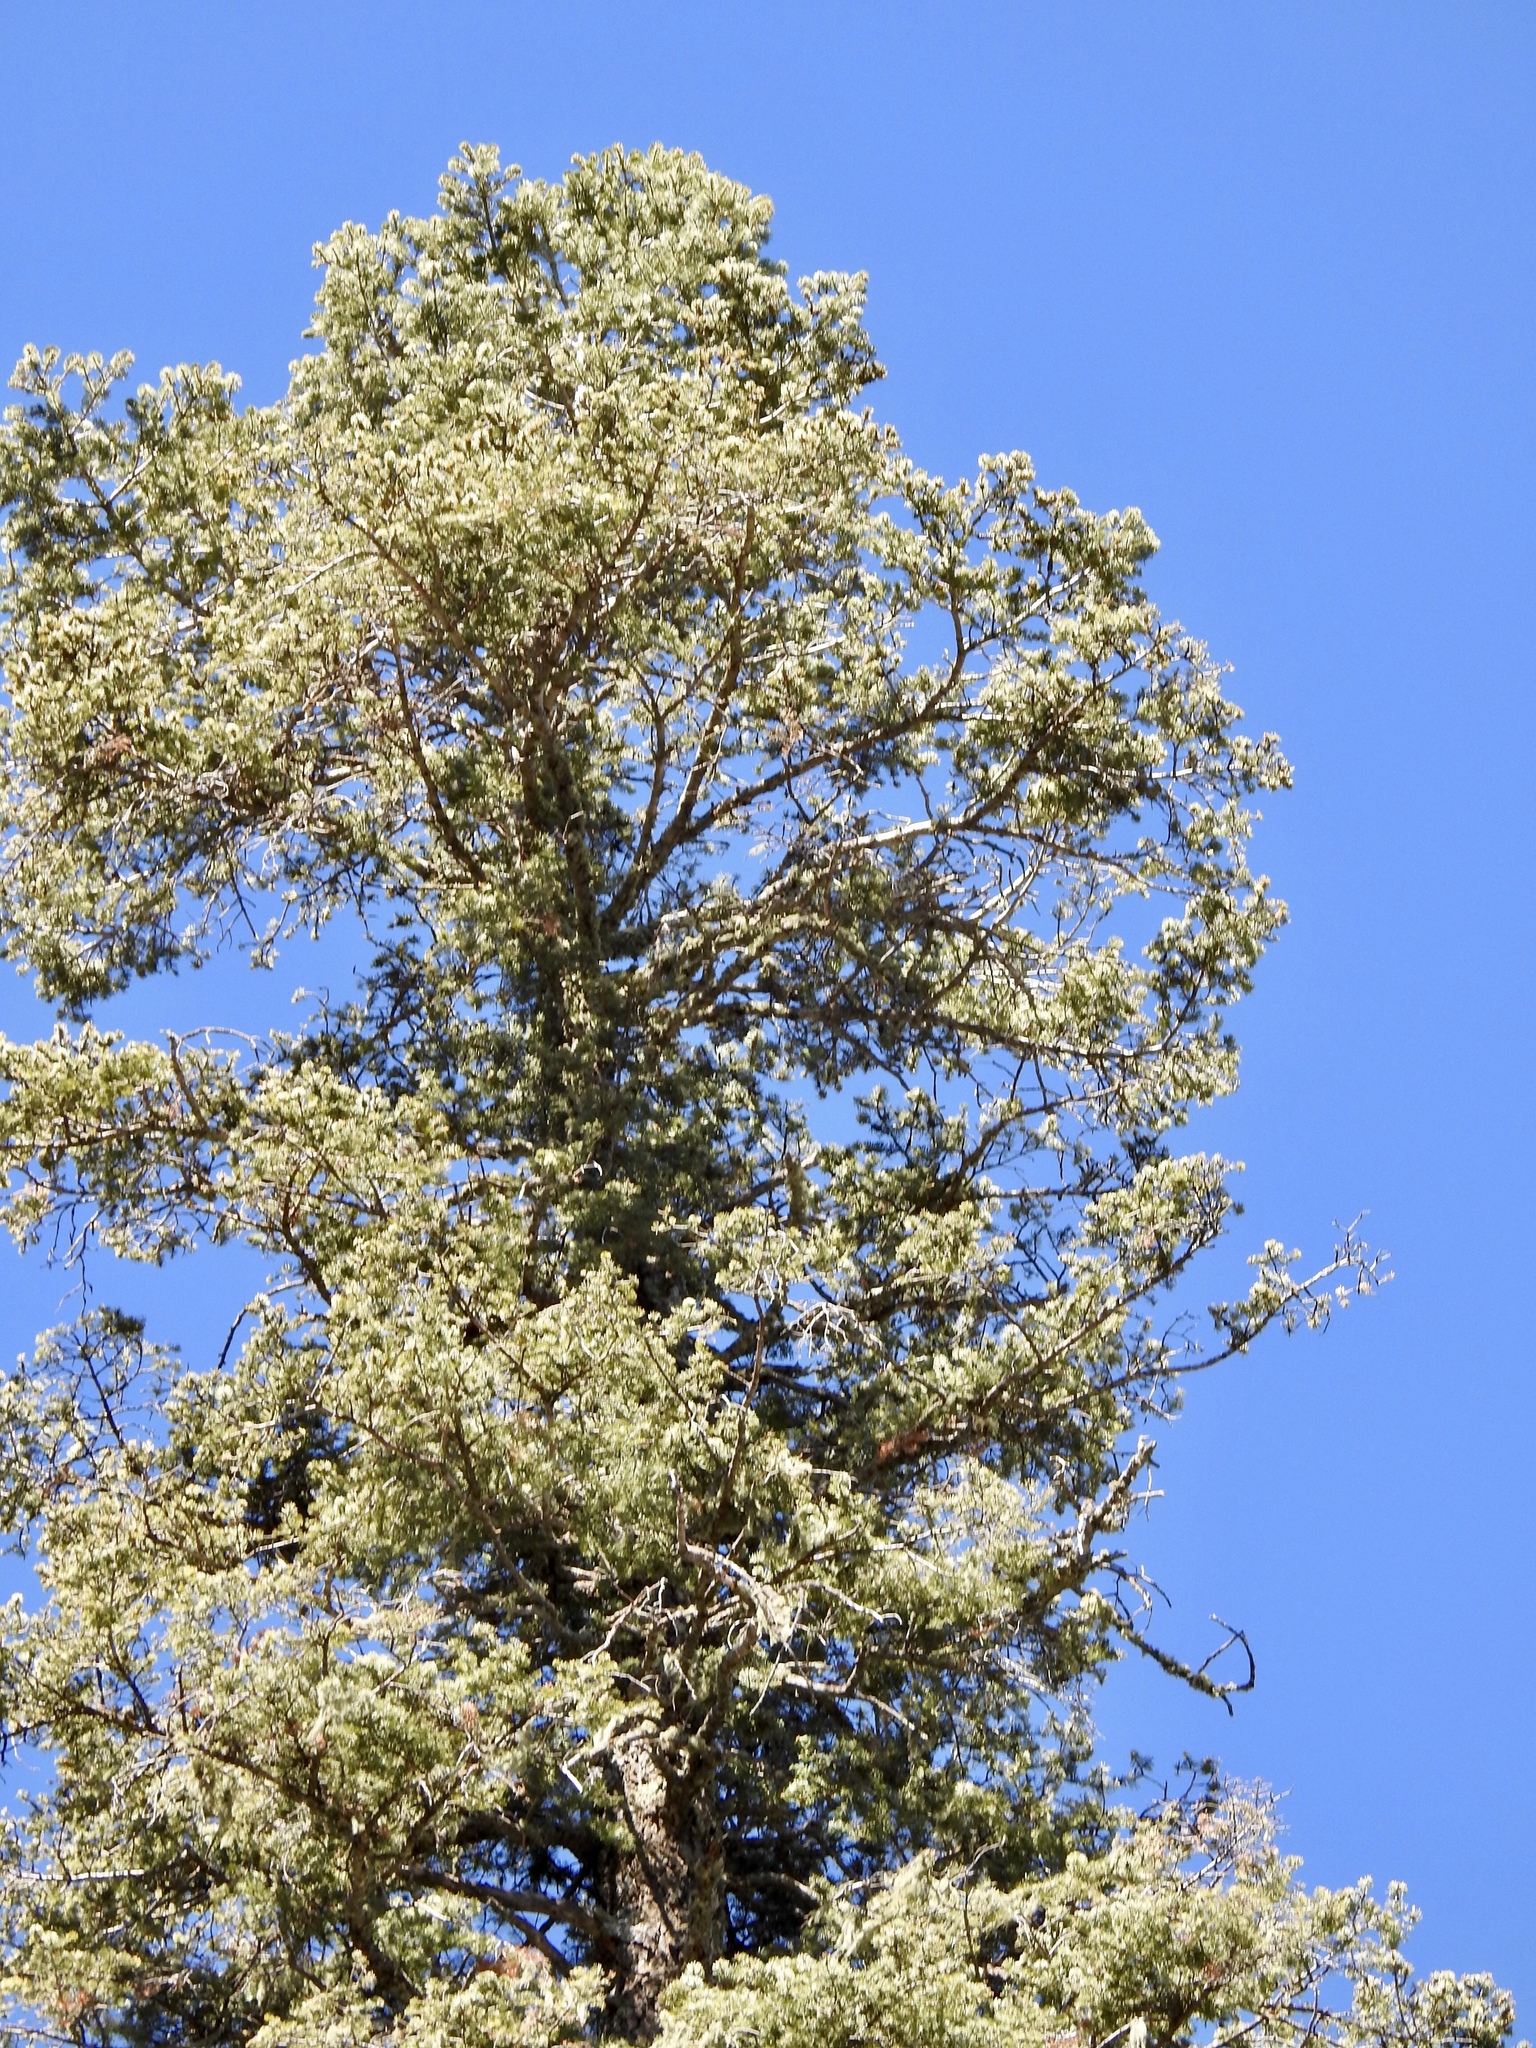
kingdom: Plantae
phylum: Tracheophyta
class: Pinopsida
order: Pinales
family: Pinaceae
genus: Pseudotsuga
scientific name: Pseudotsuga menziesii
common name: Douglas fir
